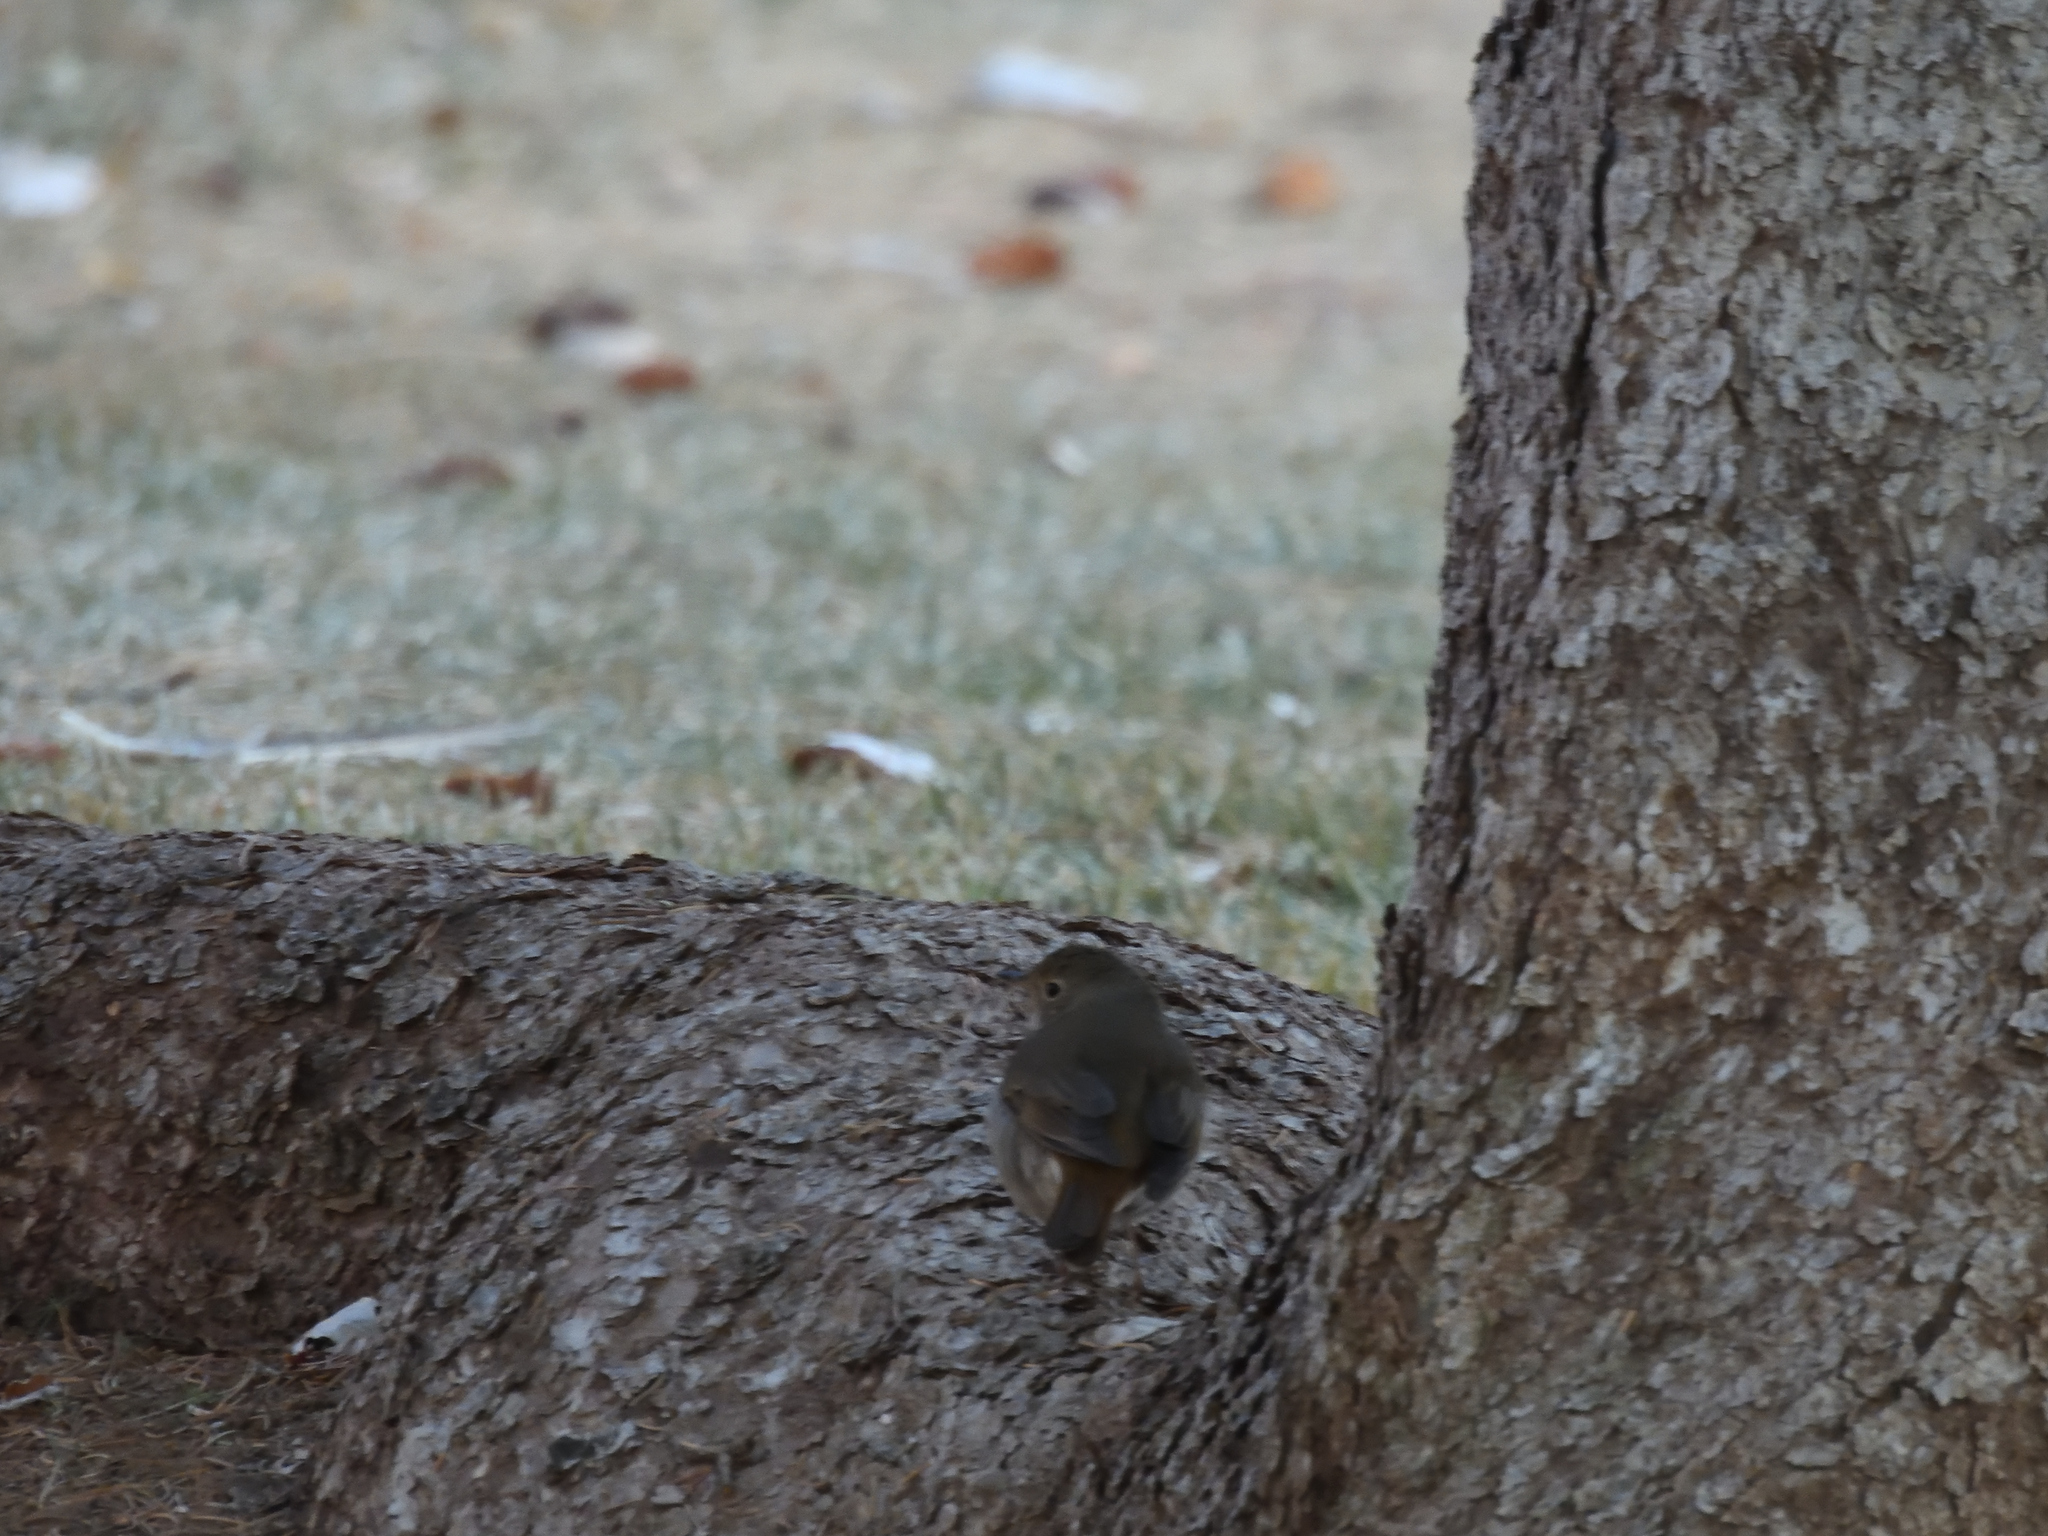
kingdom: Animalia
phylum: Chordata
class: Aves
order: Passeriformes
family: Turdidae
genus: Catharus
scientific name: Catharus guttatus
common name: Hermit thrush
